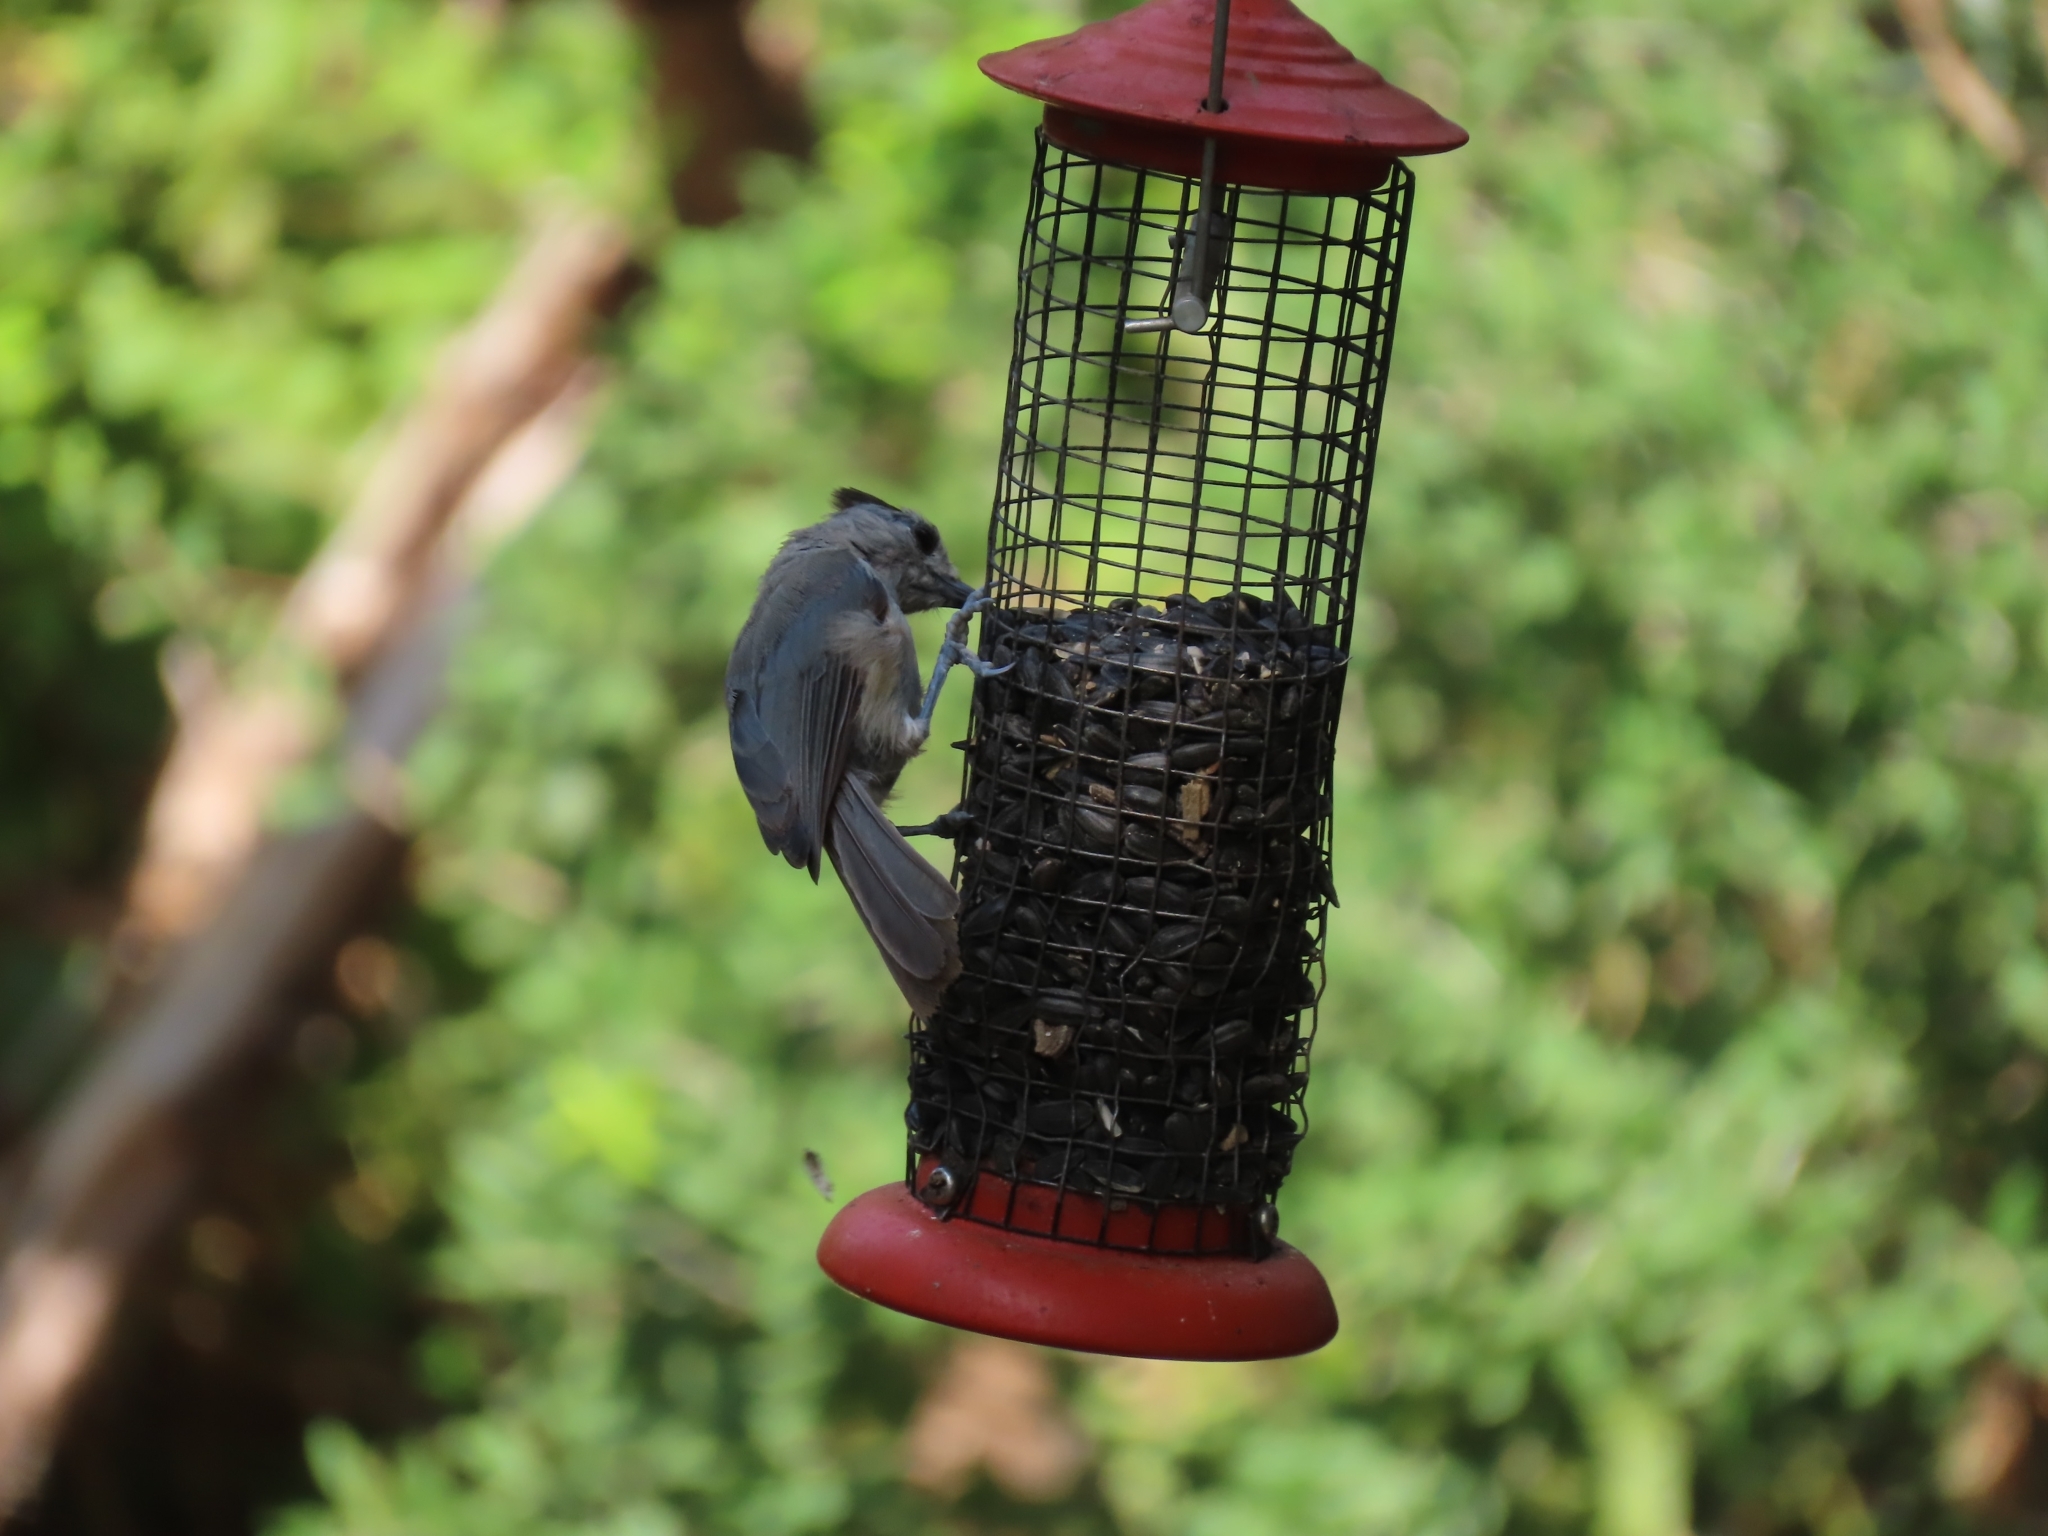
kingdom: Animalia
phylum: Chordata
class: Aves
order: Passeriformes
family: Paridae
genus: Baeolophus
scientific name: Baeolophus atricristatus
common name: Black-crested titmouse
